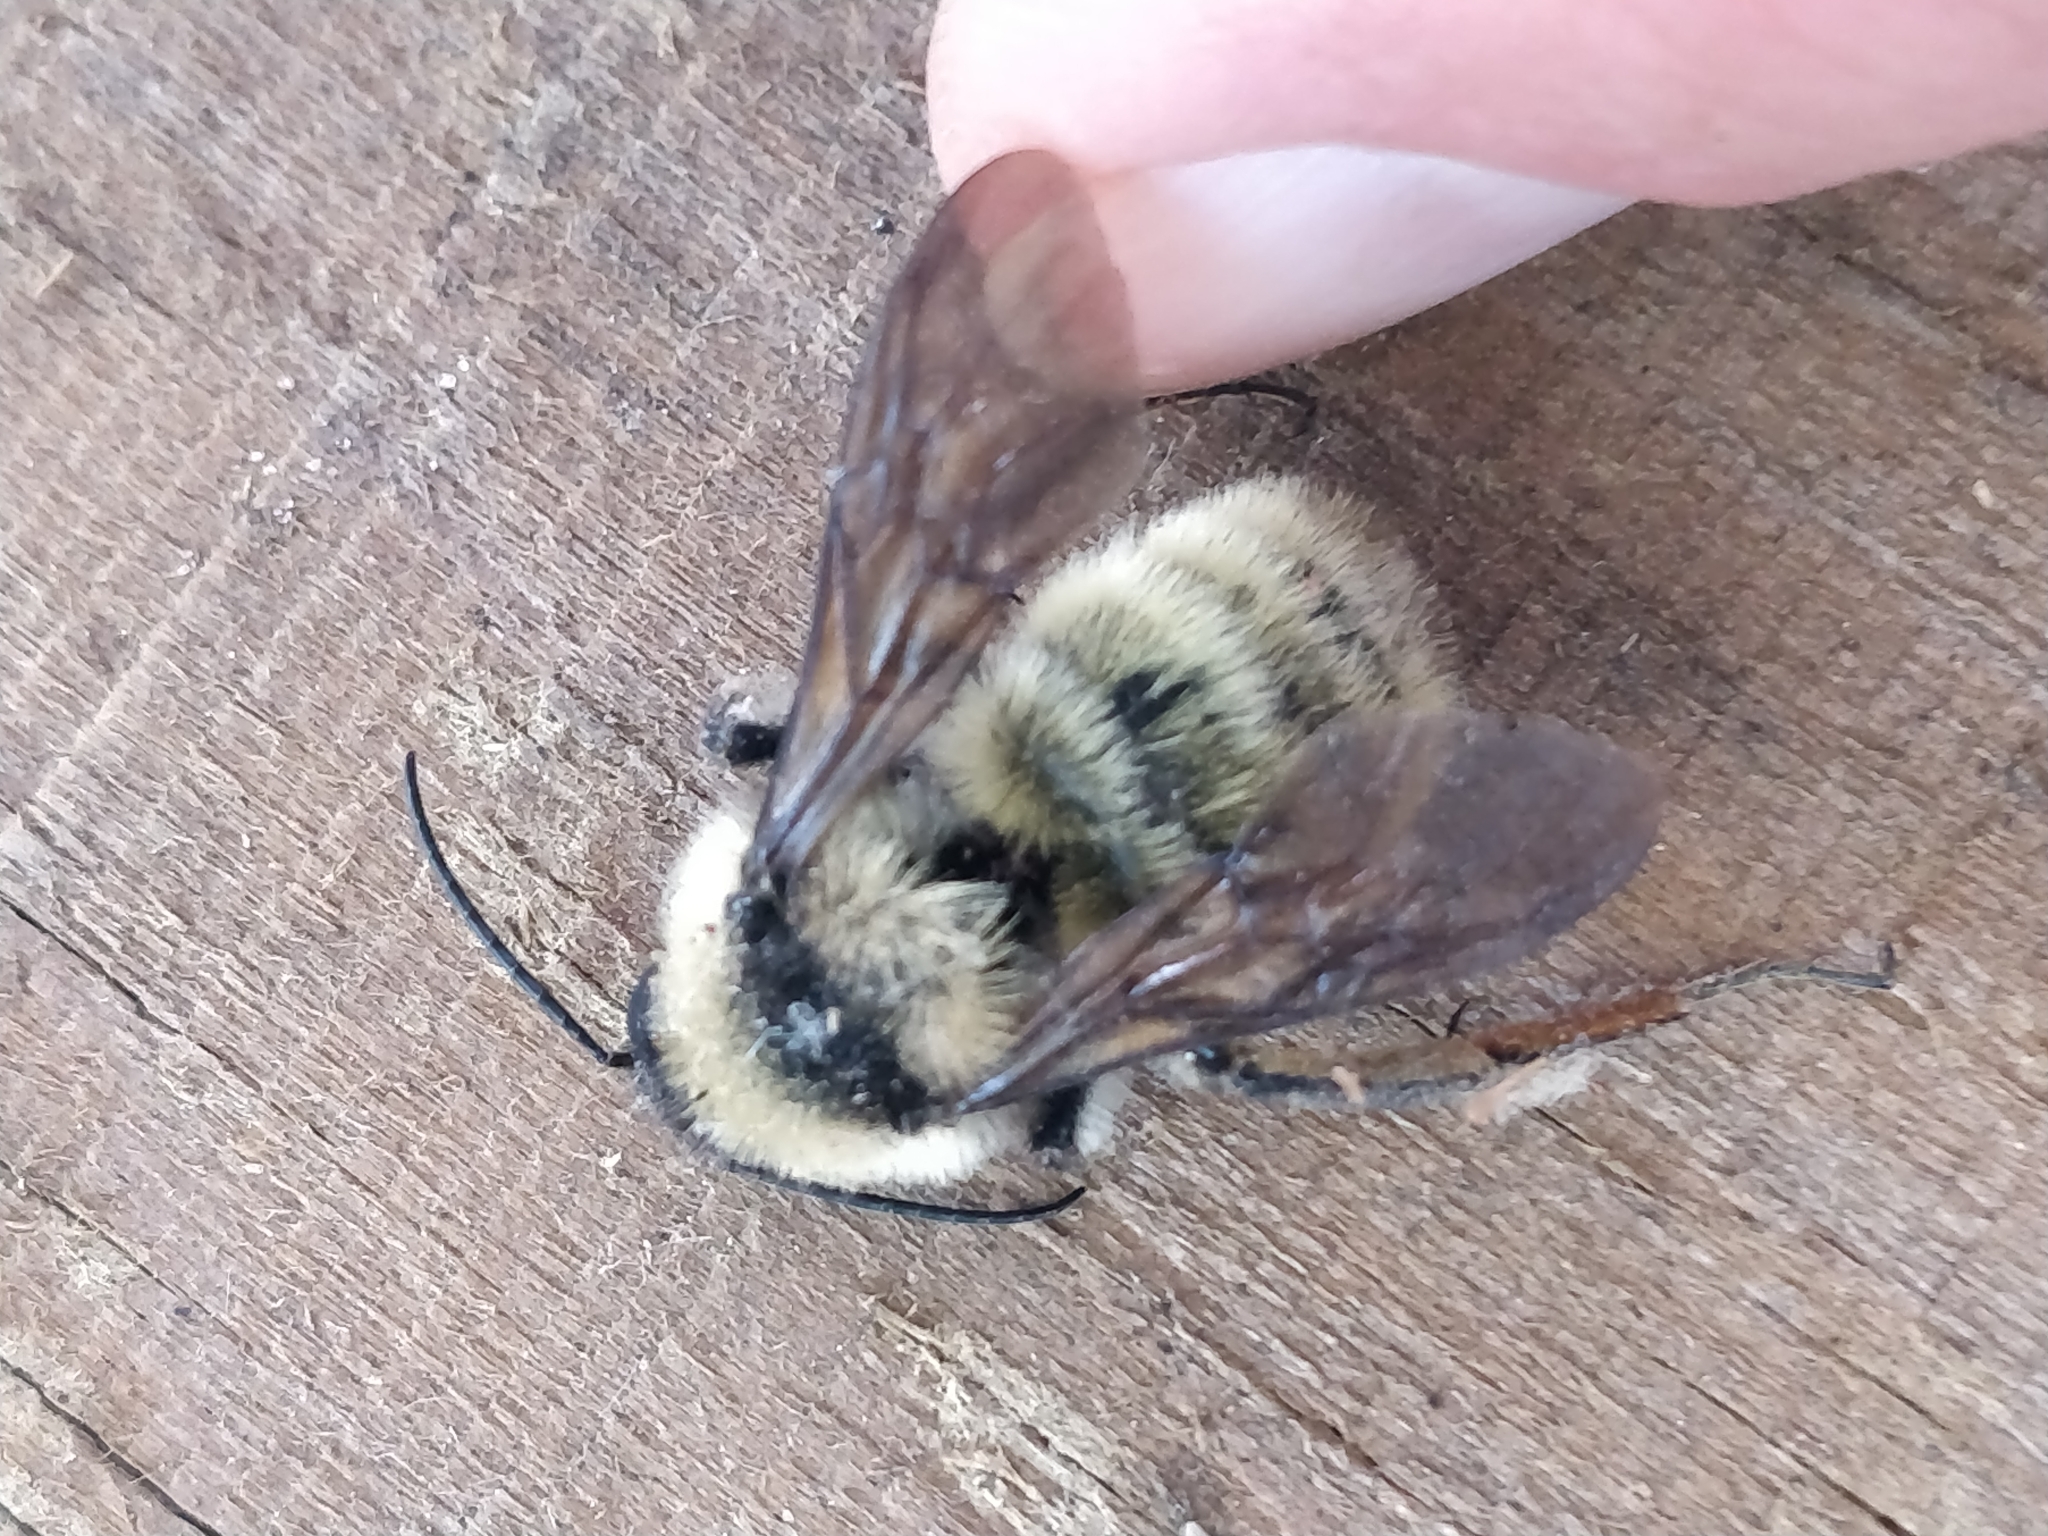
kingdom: Animalia
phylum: Arthropoda
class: Insecta
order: Hymenoptera
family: Apidae
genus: Bombus
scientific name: Bombus pensylvanicus
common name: Bumble bee
